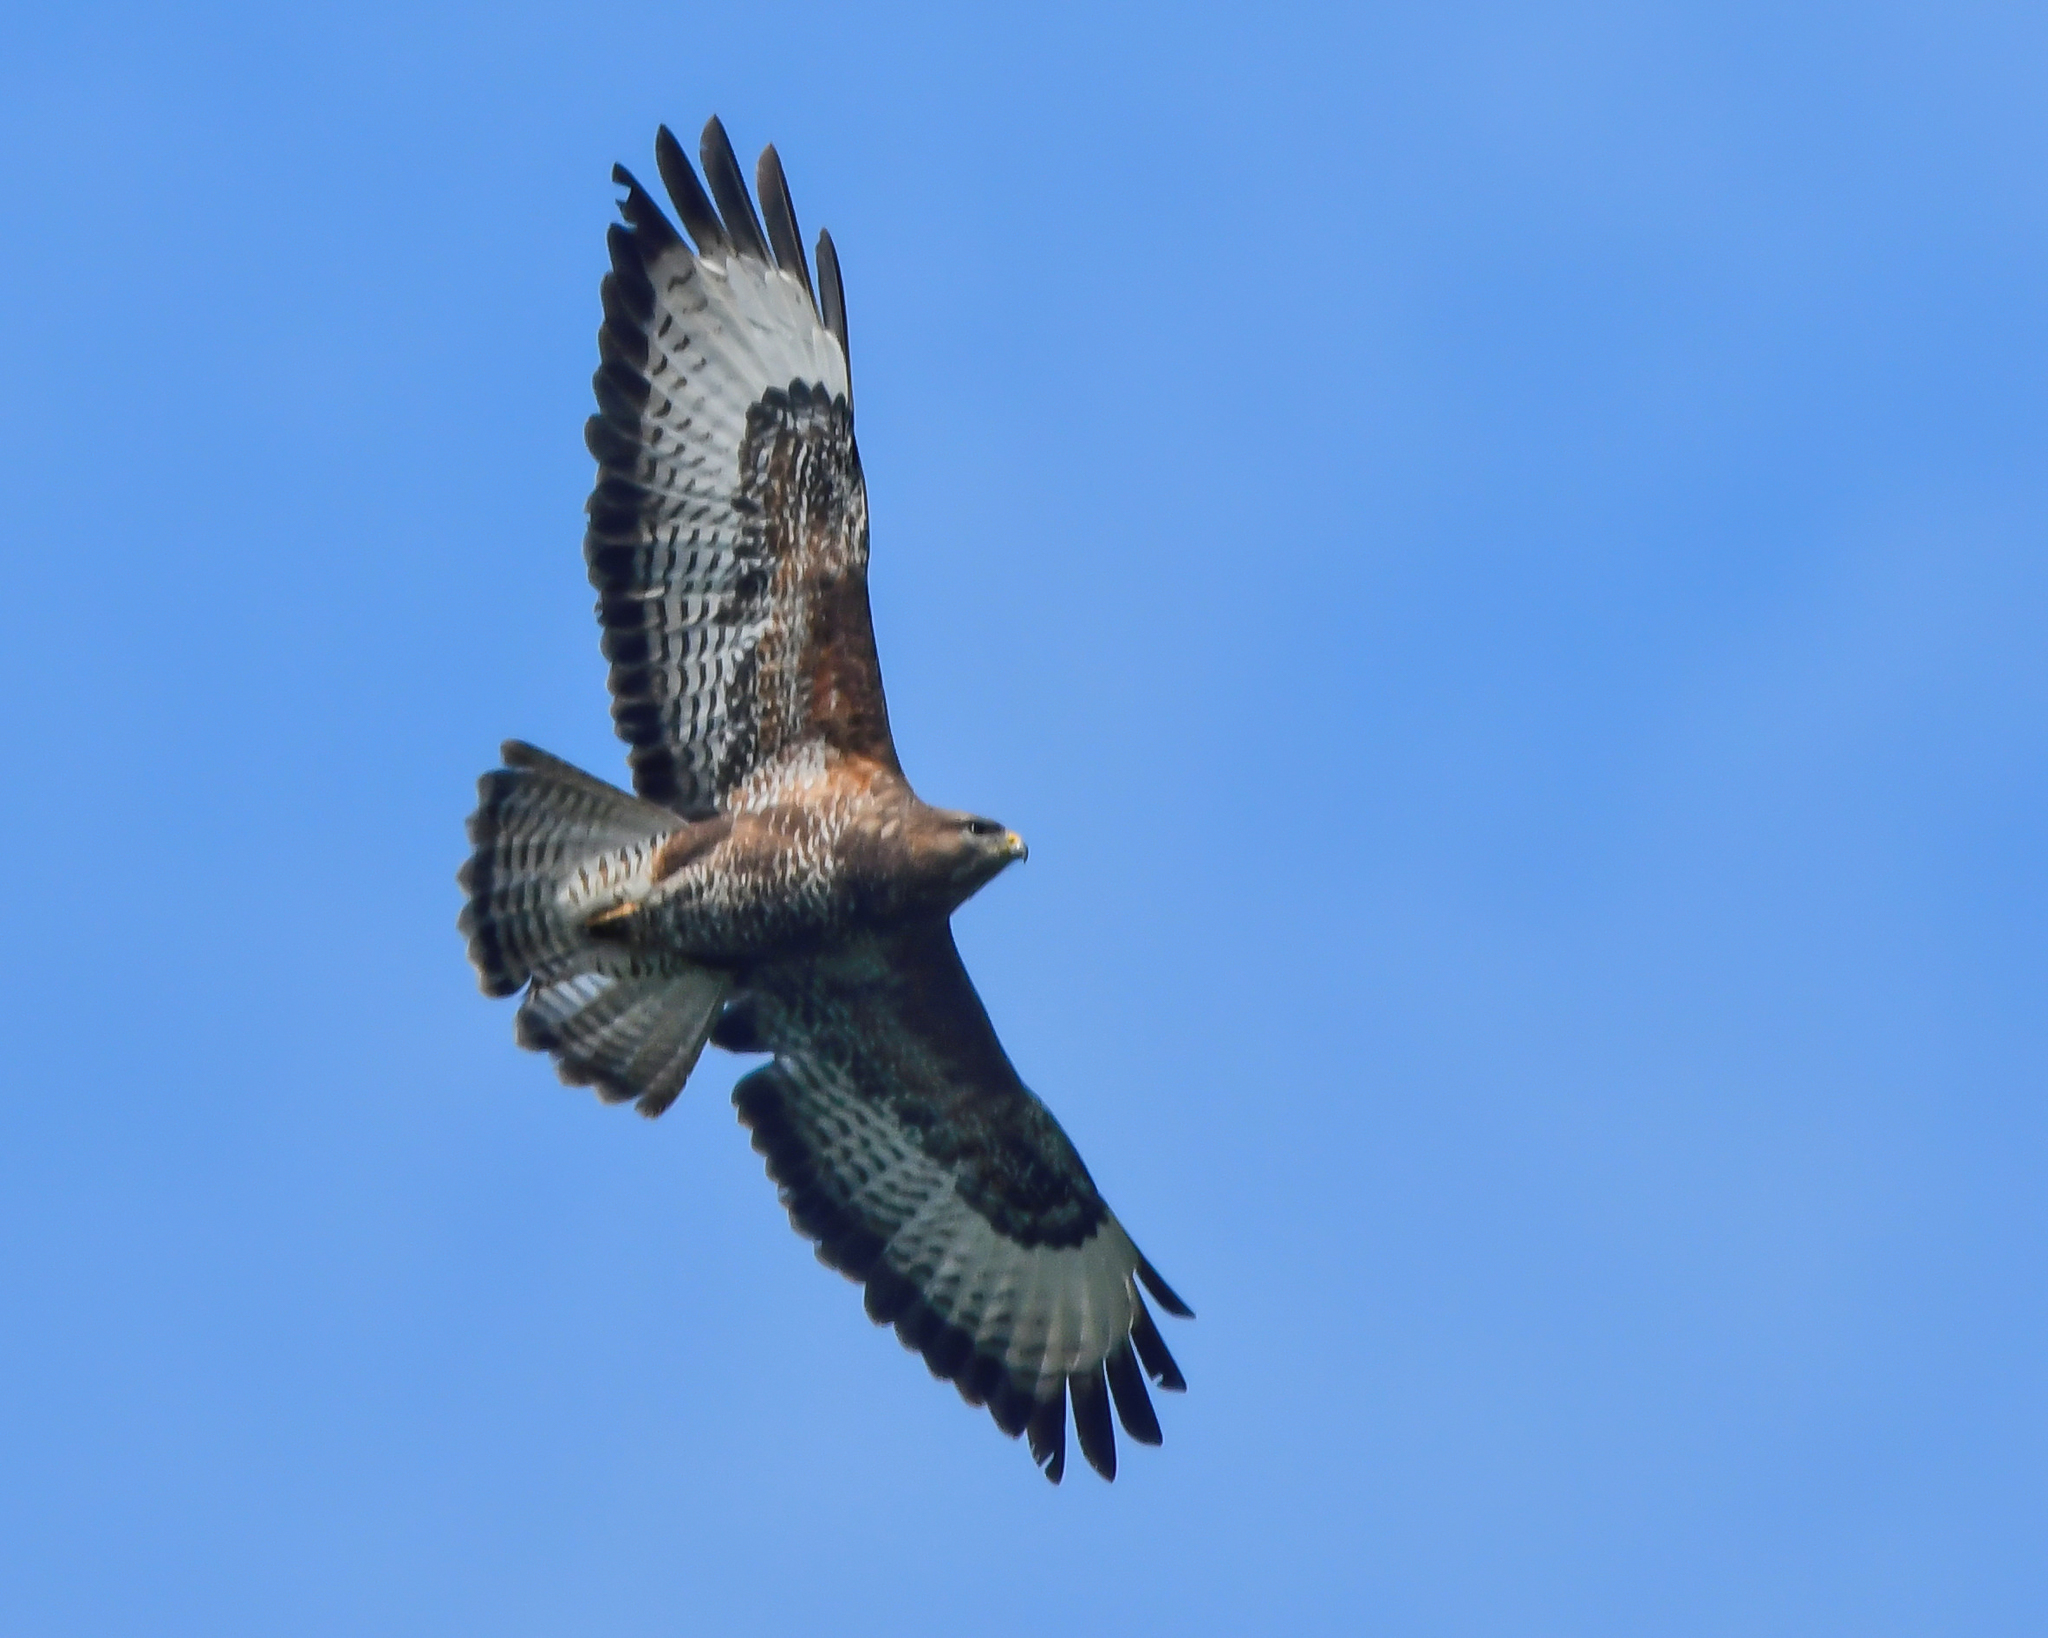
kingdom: Animalia
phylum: Chordata
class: Aves
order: Accipitriformes
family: Accipitridae
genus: Buteo
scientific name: Buteo buteo
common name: Common buzzard
